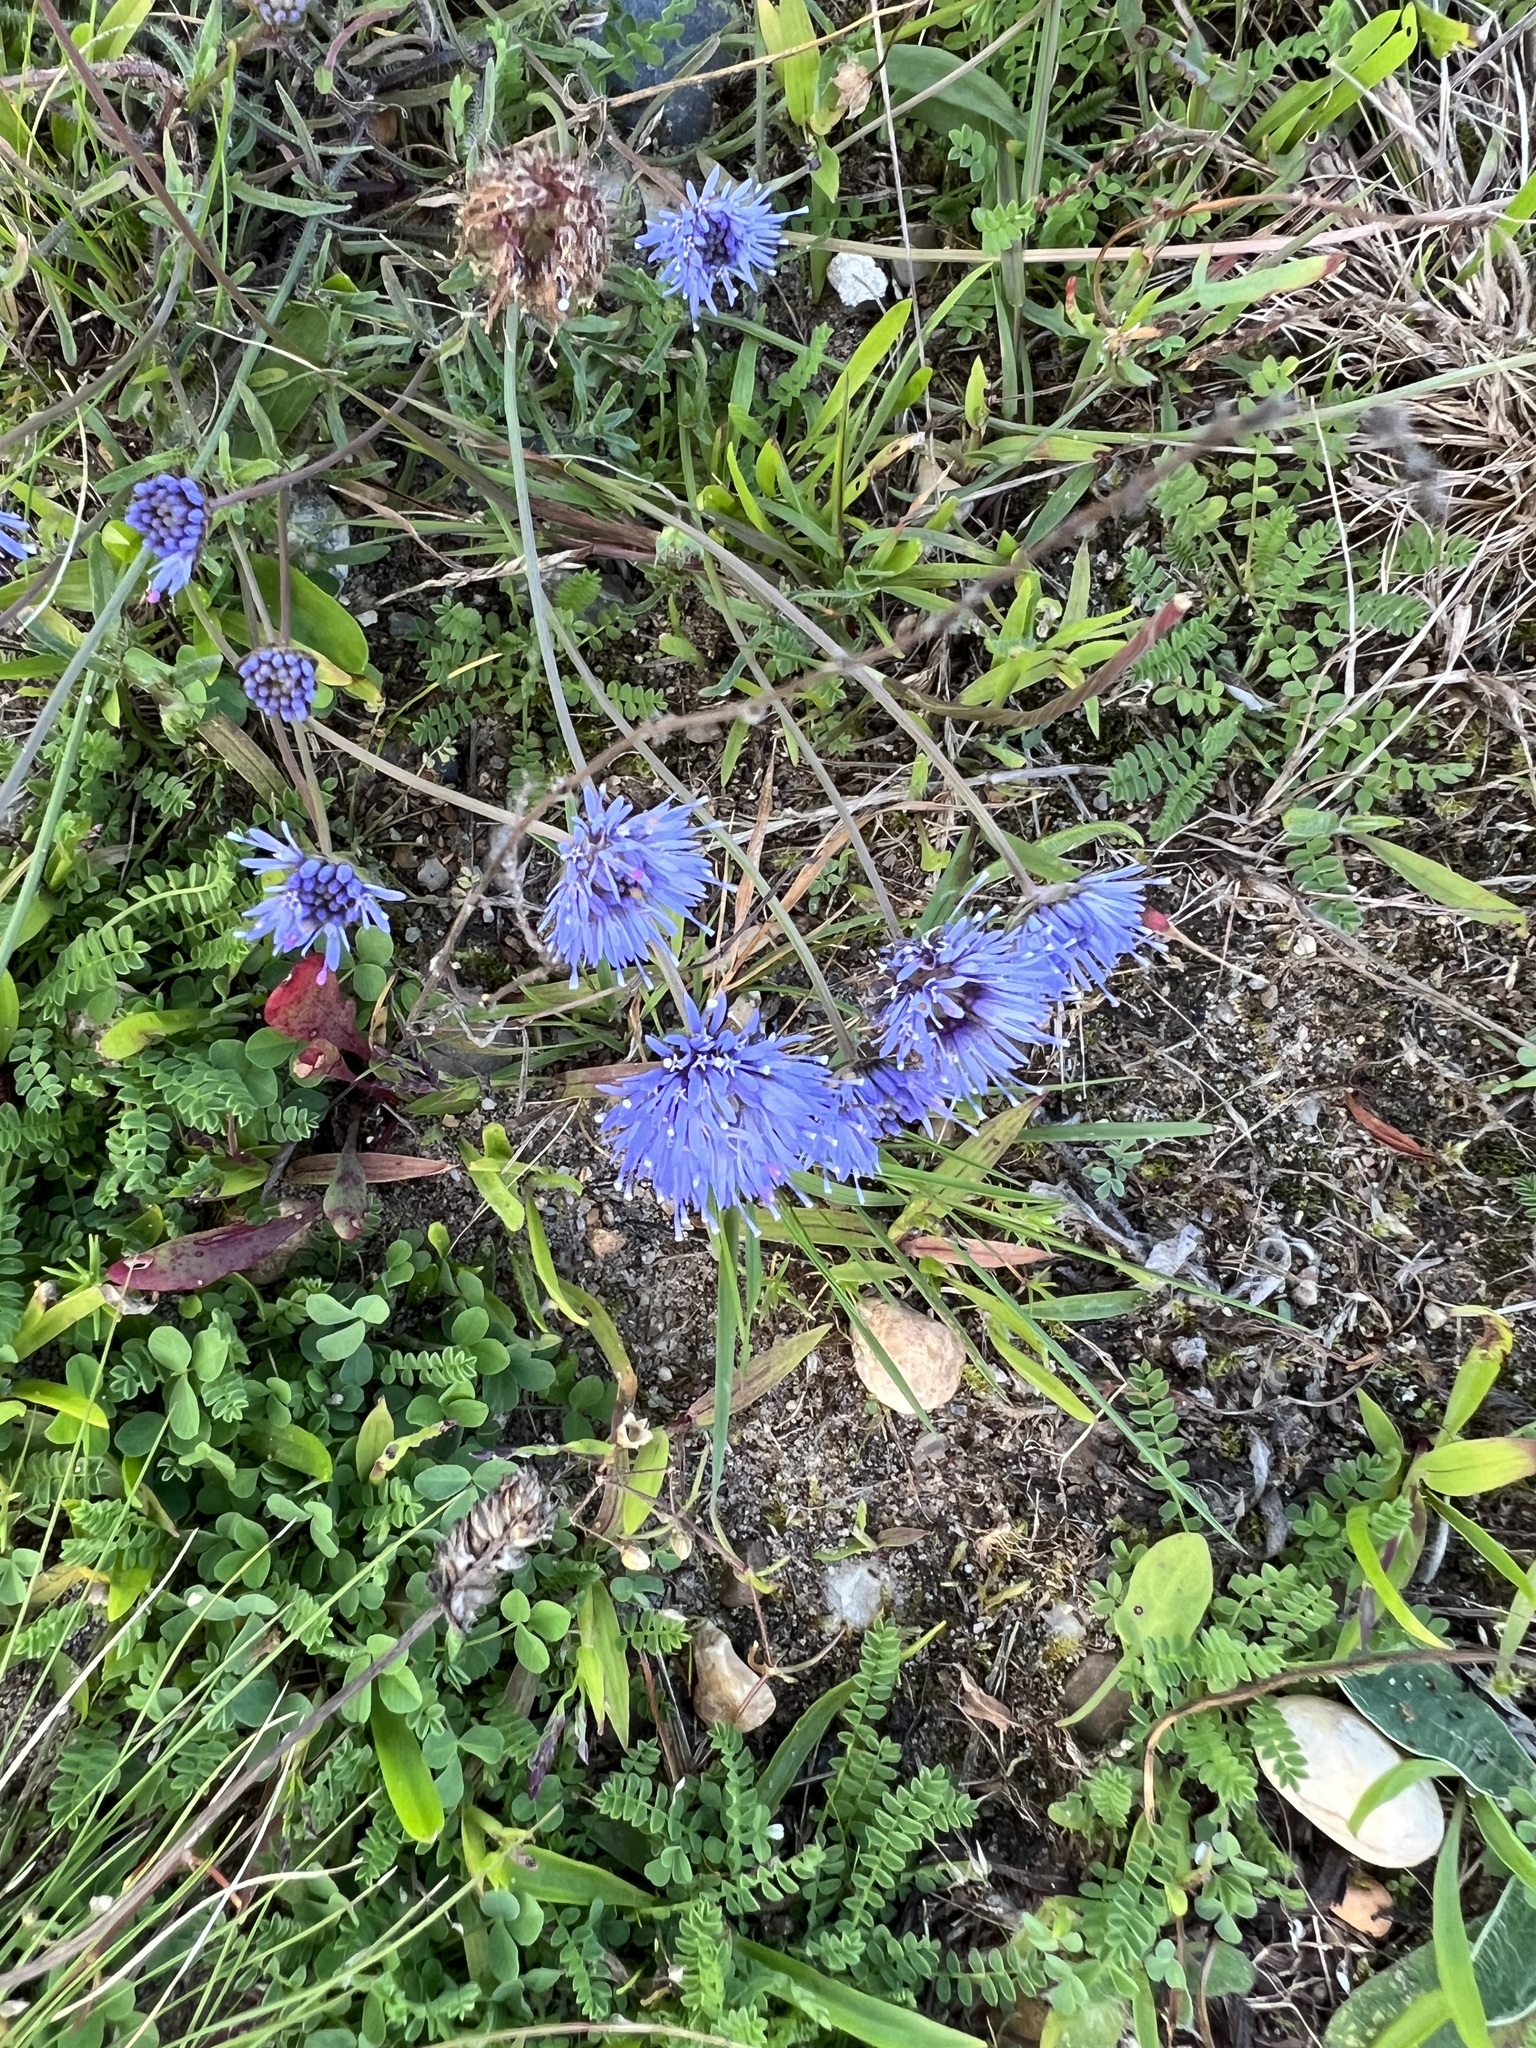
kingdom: Plantae
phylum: Tracheophyta
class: Magnoliopsida
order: Asterales
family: Campanulaceae
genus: Jasione
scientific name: Jasione montana
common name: Sheep's-bit
